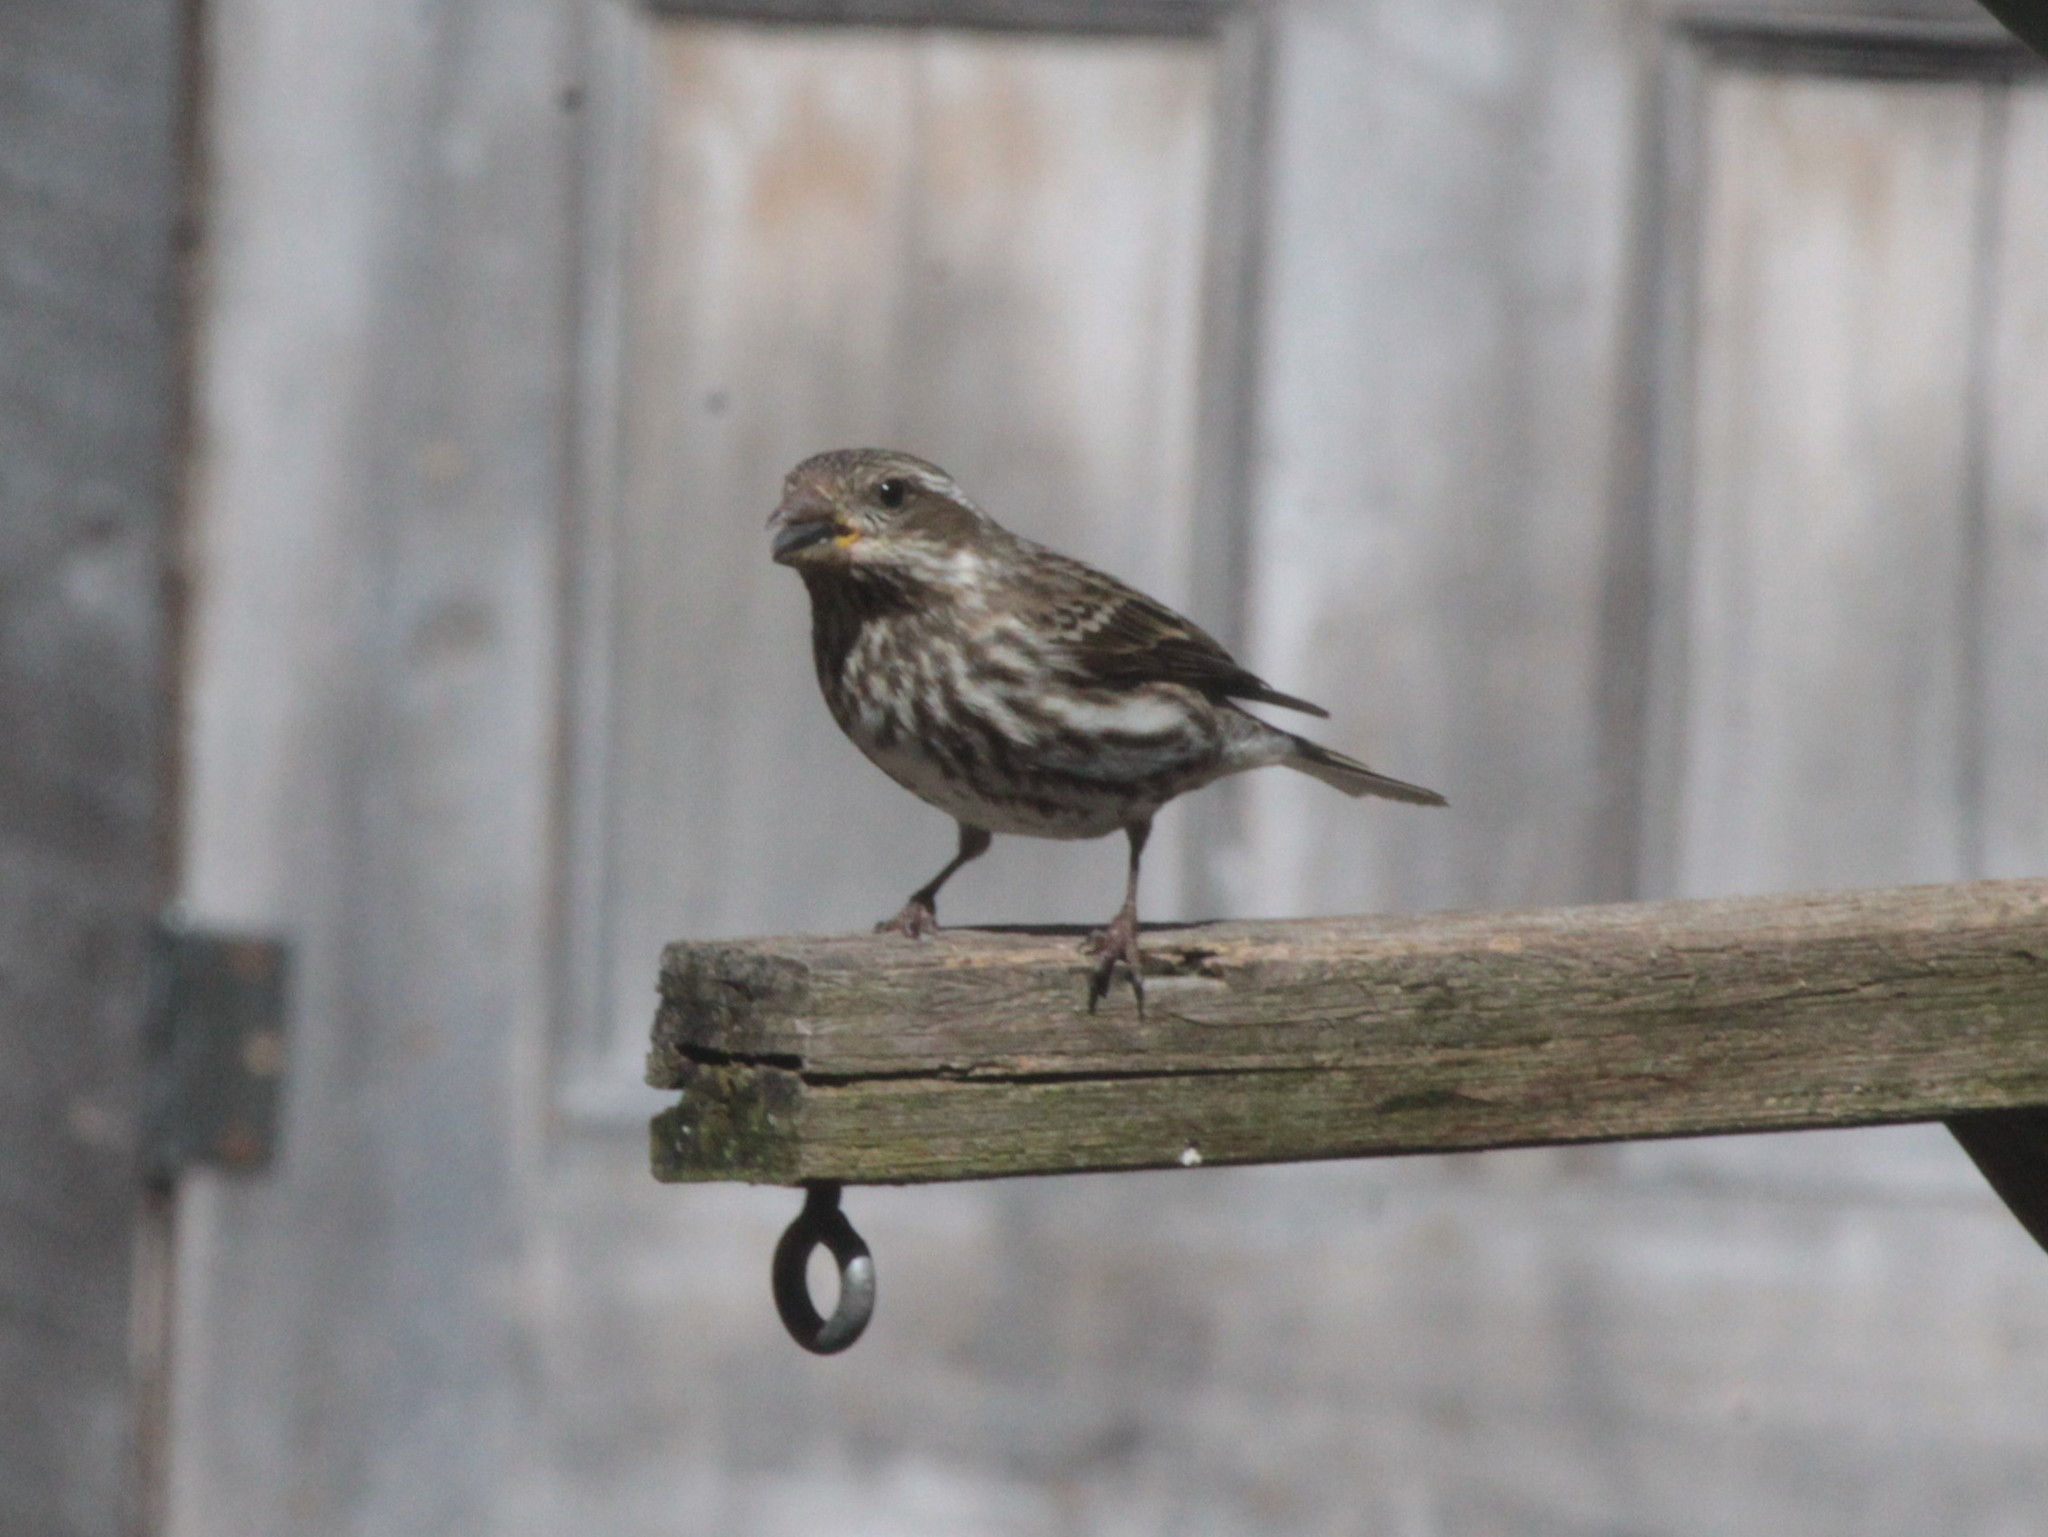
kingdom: Animalia
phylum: Chordata
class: Aves
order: Passeriformes
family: Fringillidae
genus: Haemorhous
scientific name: Haemorhous purpureus
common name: Purple finch
